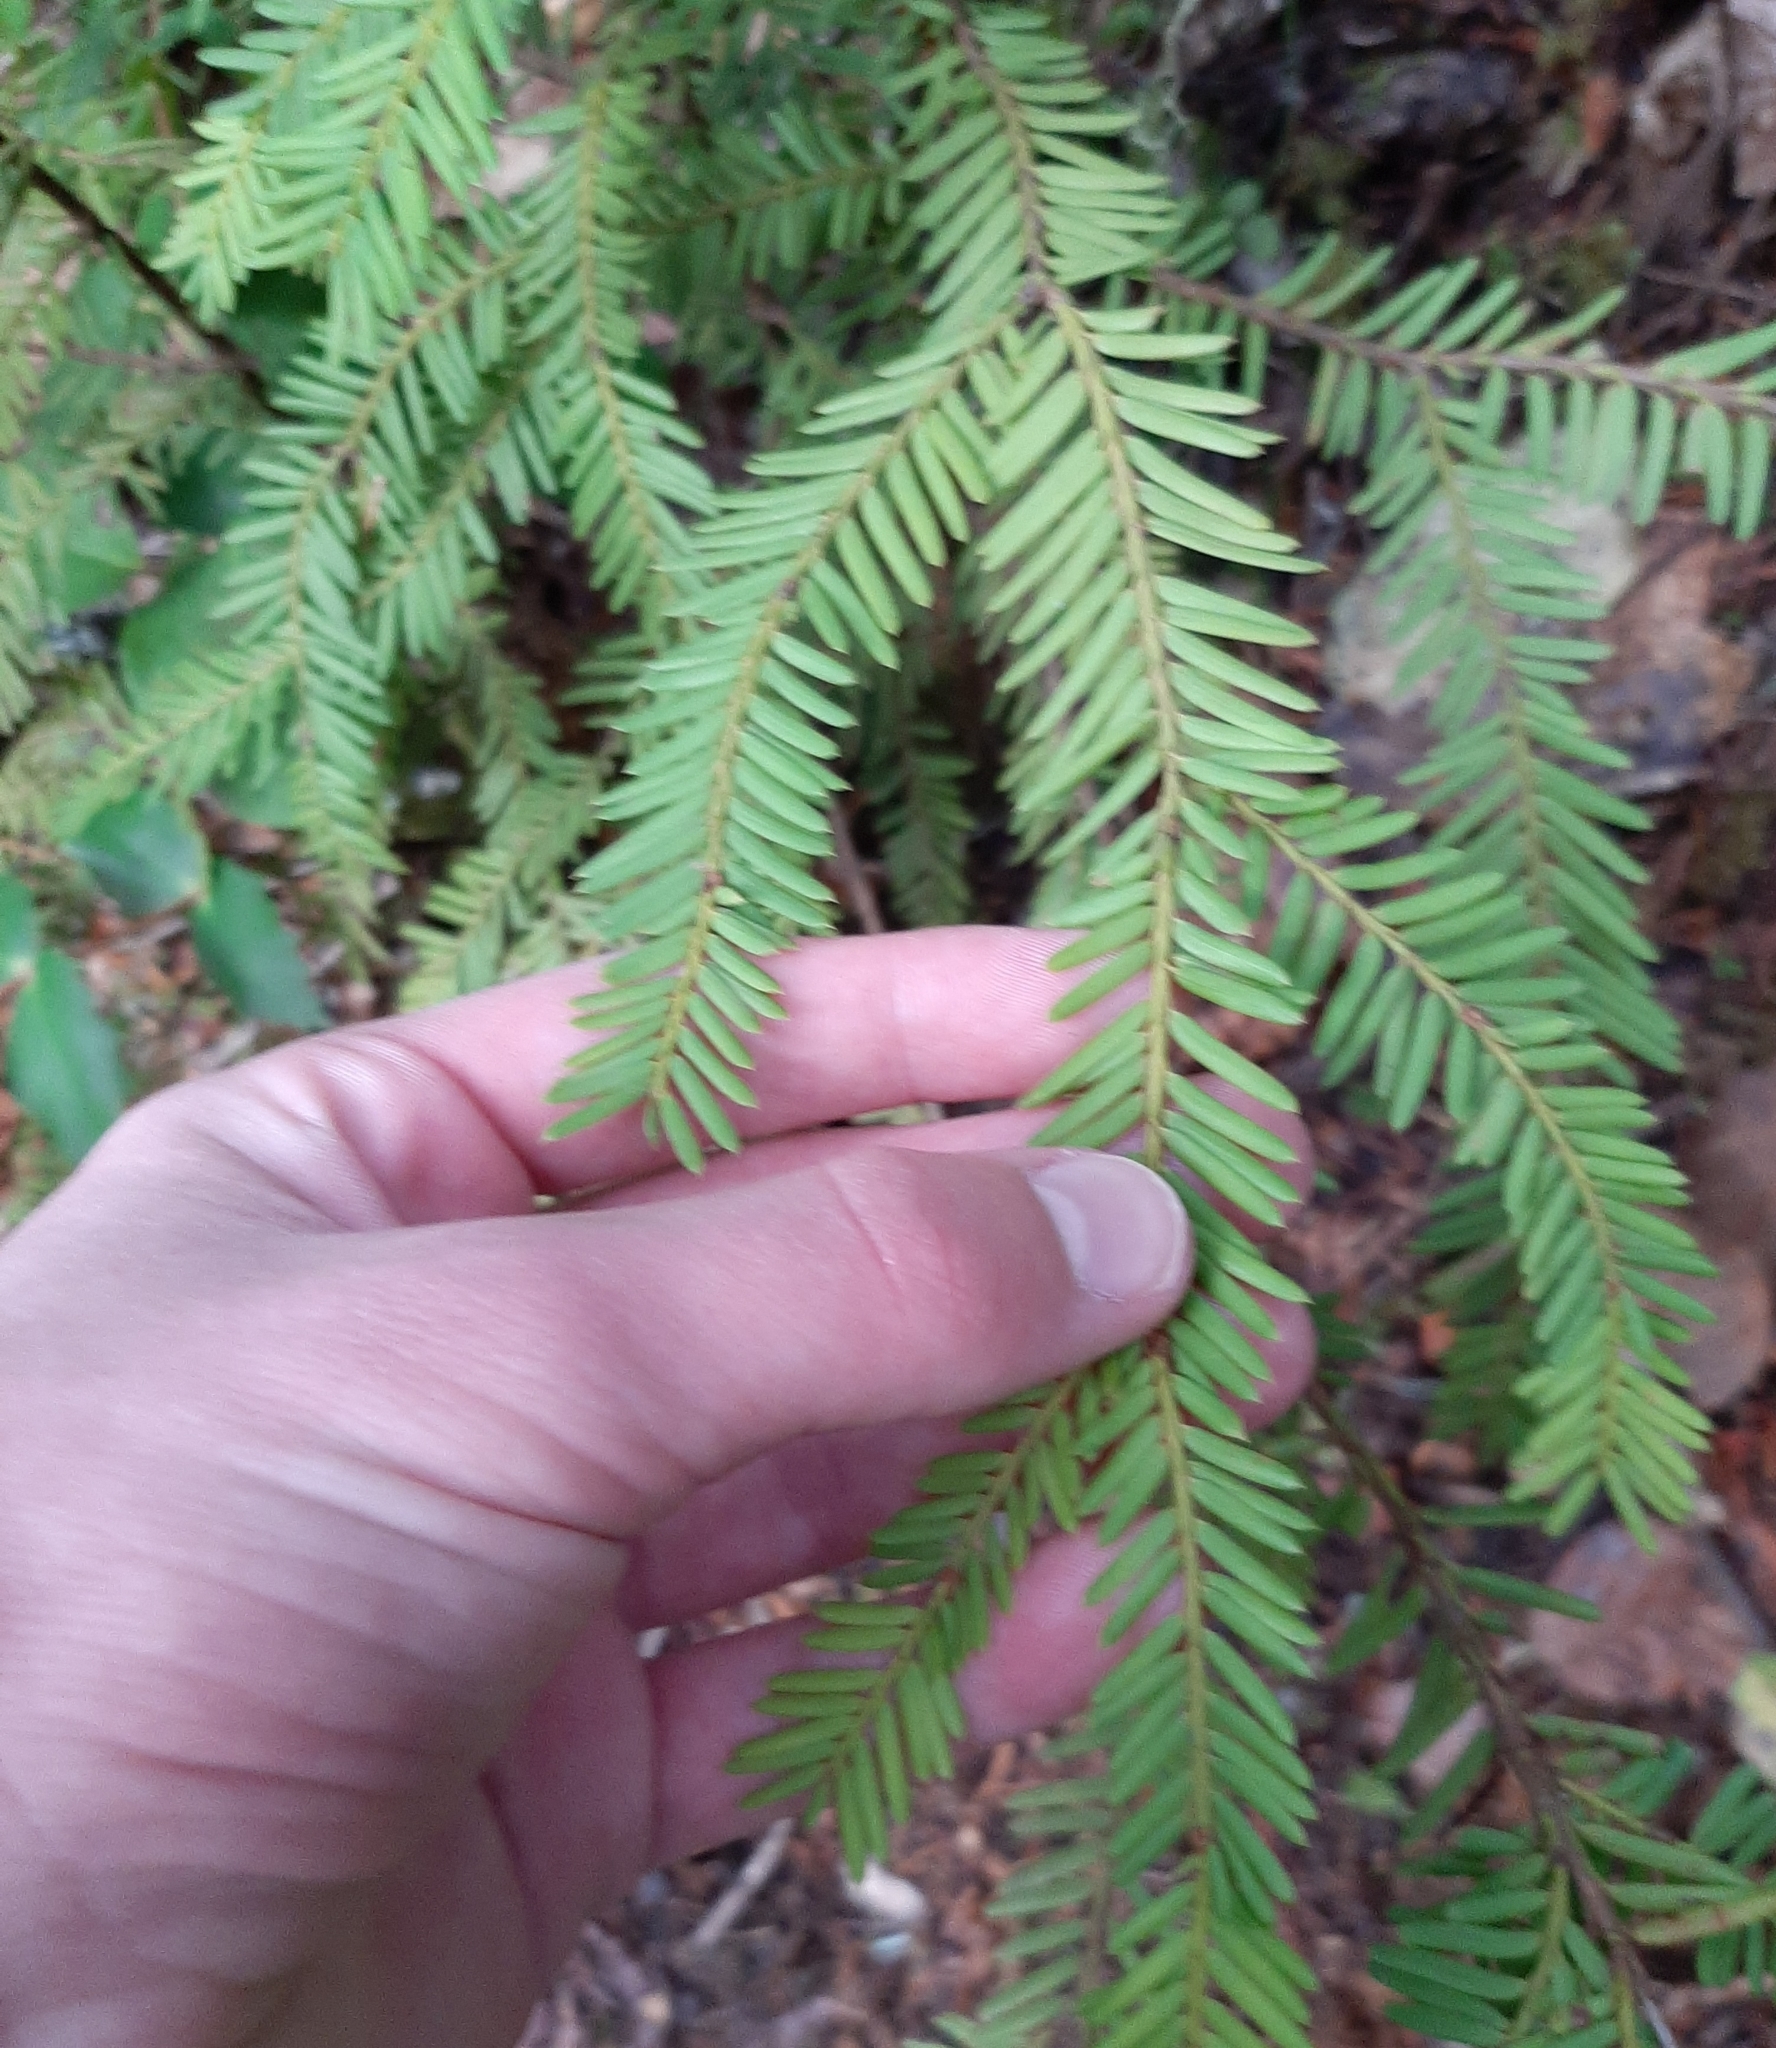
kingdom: Plantae
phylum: Tracheophyta
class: Pinopsida
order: Pinales
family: Taxaceae
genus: Taxus
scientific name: Taxus brevifolia
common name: Pacific yew
